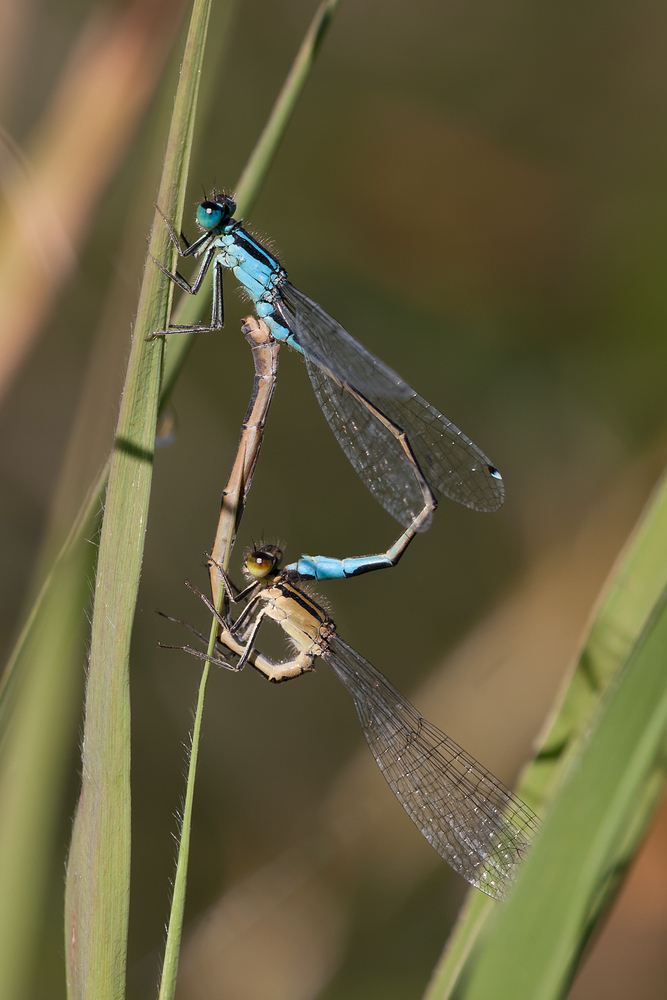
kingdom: Animalia
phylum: Arthropoda
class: Insecta
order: Odonata
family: Coenagrionidae
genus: Ischnura
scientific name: Ischnura elegans
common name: Blue-tailed damselfly
